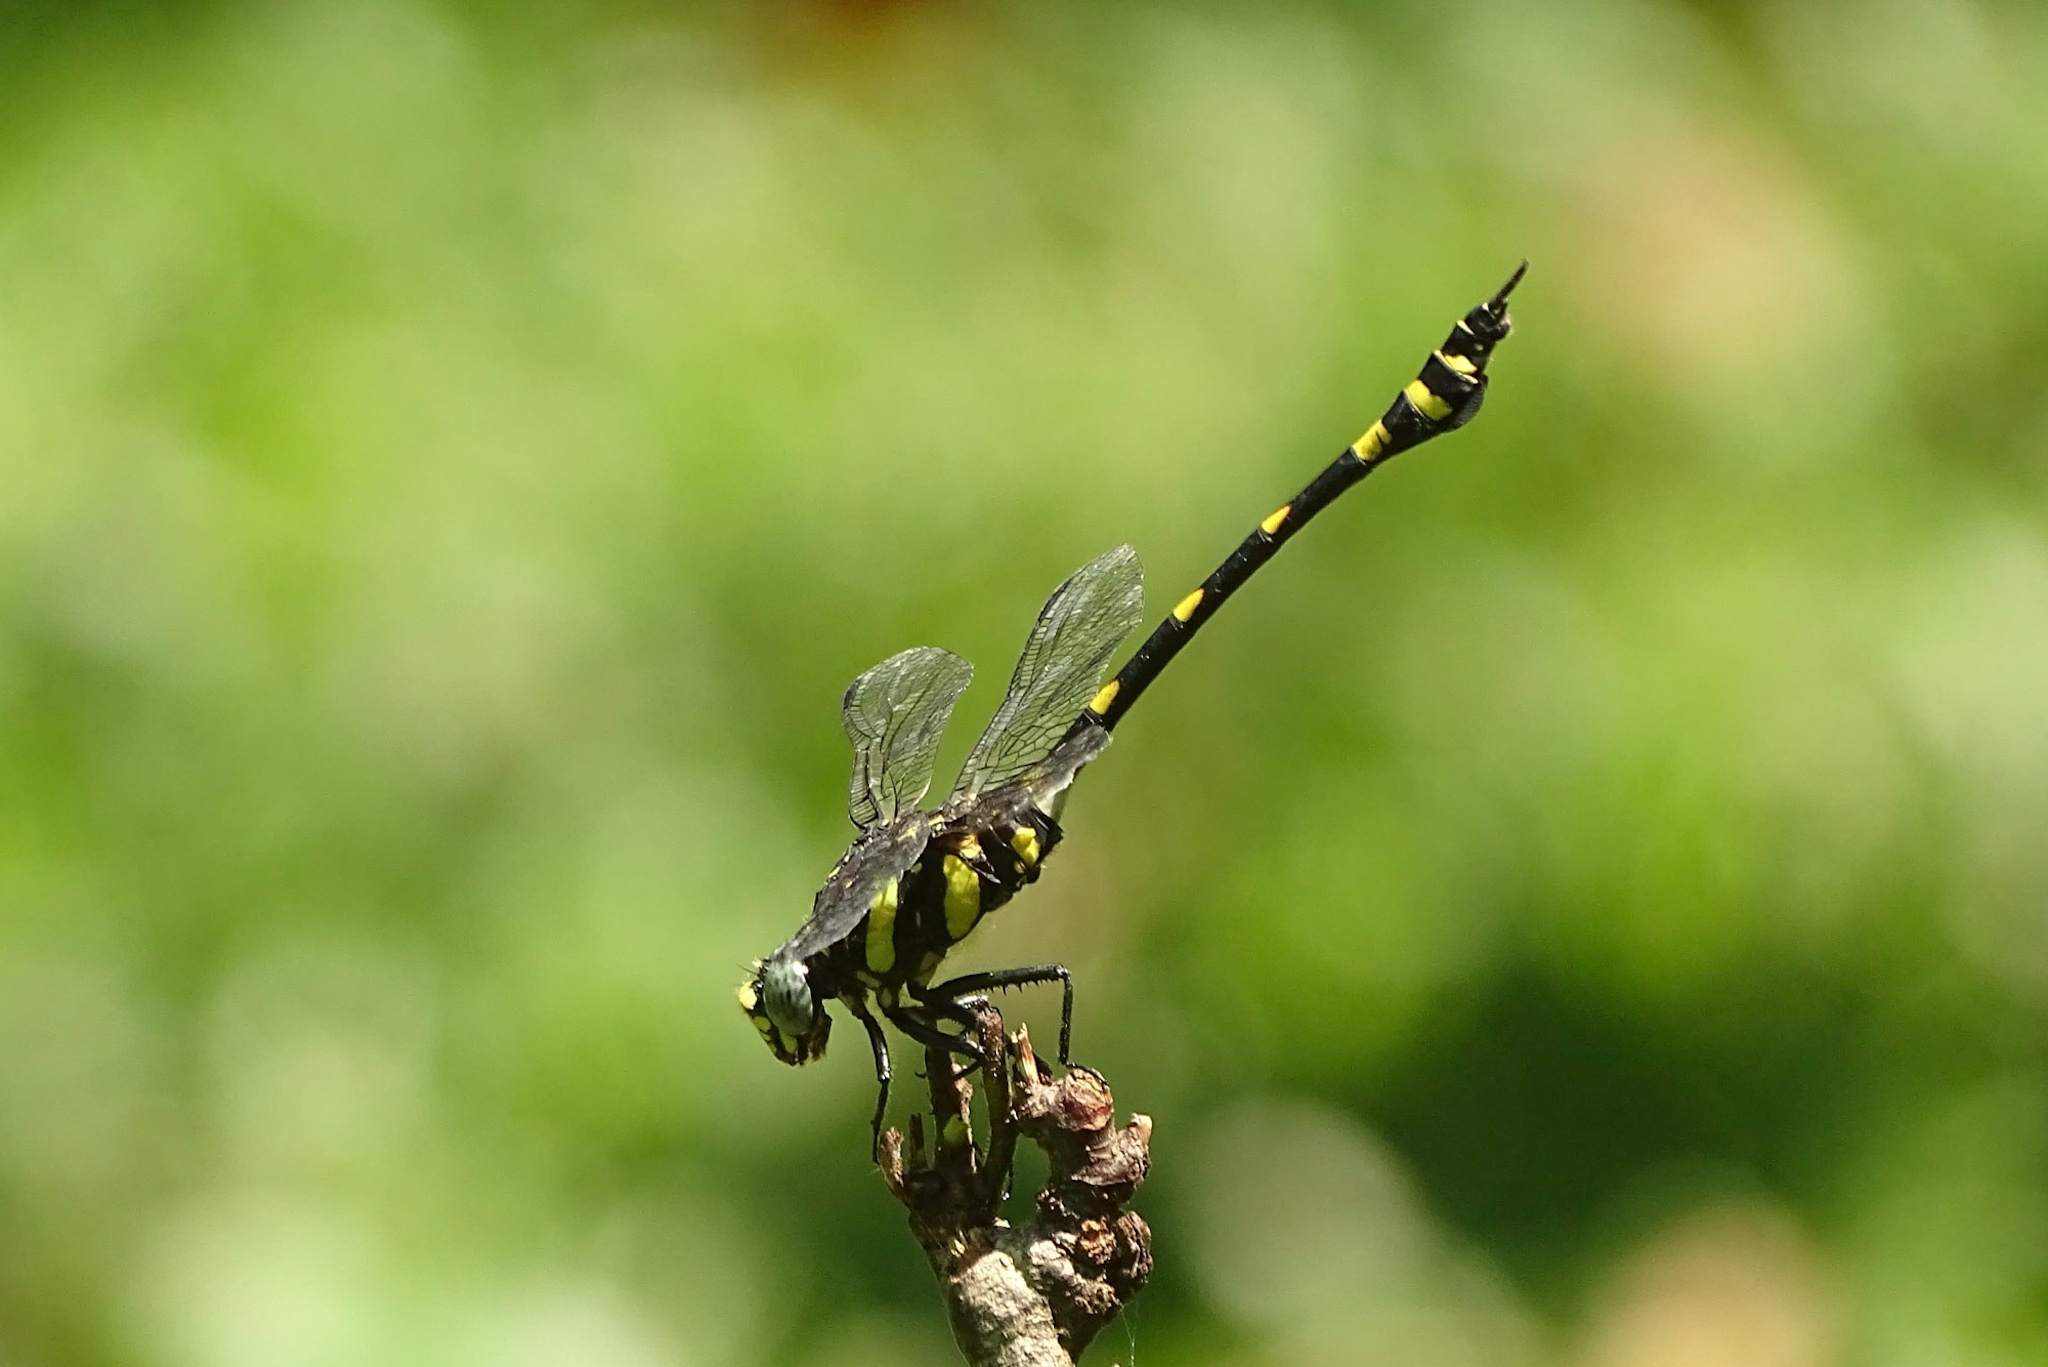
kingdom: Animalia
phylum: Arthropoda
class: Insecta
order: Odonata
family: Gomphidae
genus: Ictinogomphus
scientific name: Ictinogomphus rapax
